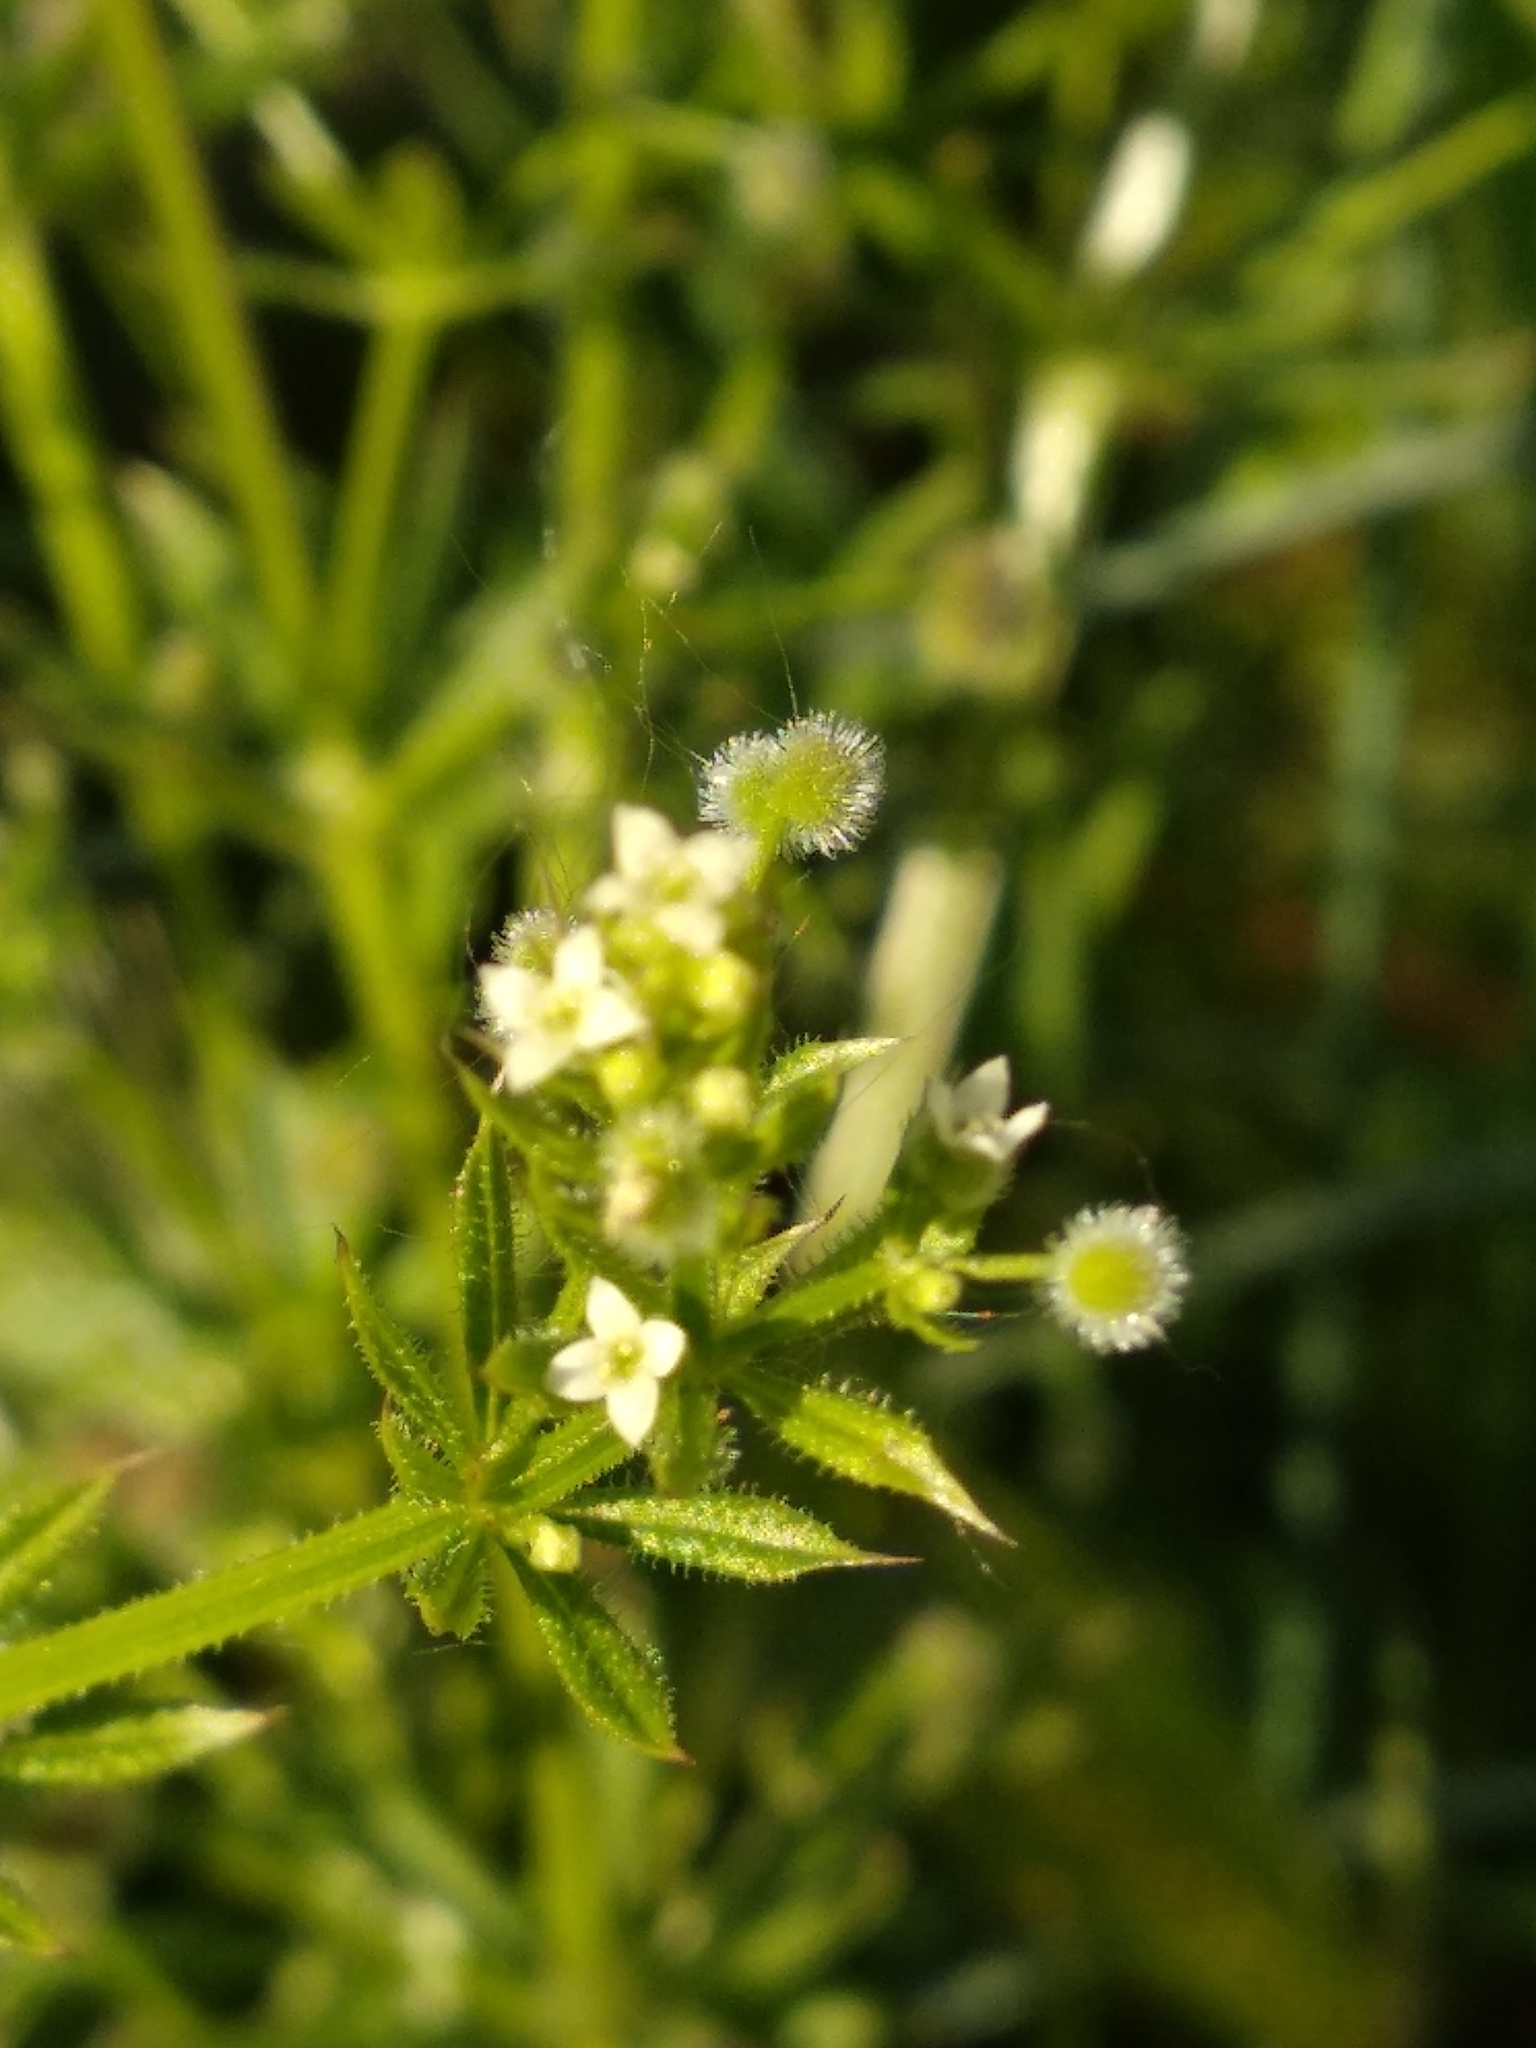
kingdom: Plantae
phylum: Tracheophyta
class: Magnoliopsida
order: Gentianales
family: Rubiaceae
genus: Galium
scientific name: Galium aparine
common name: Cleavers
